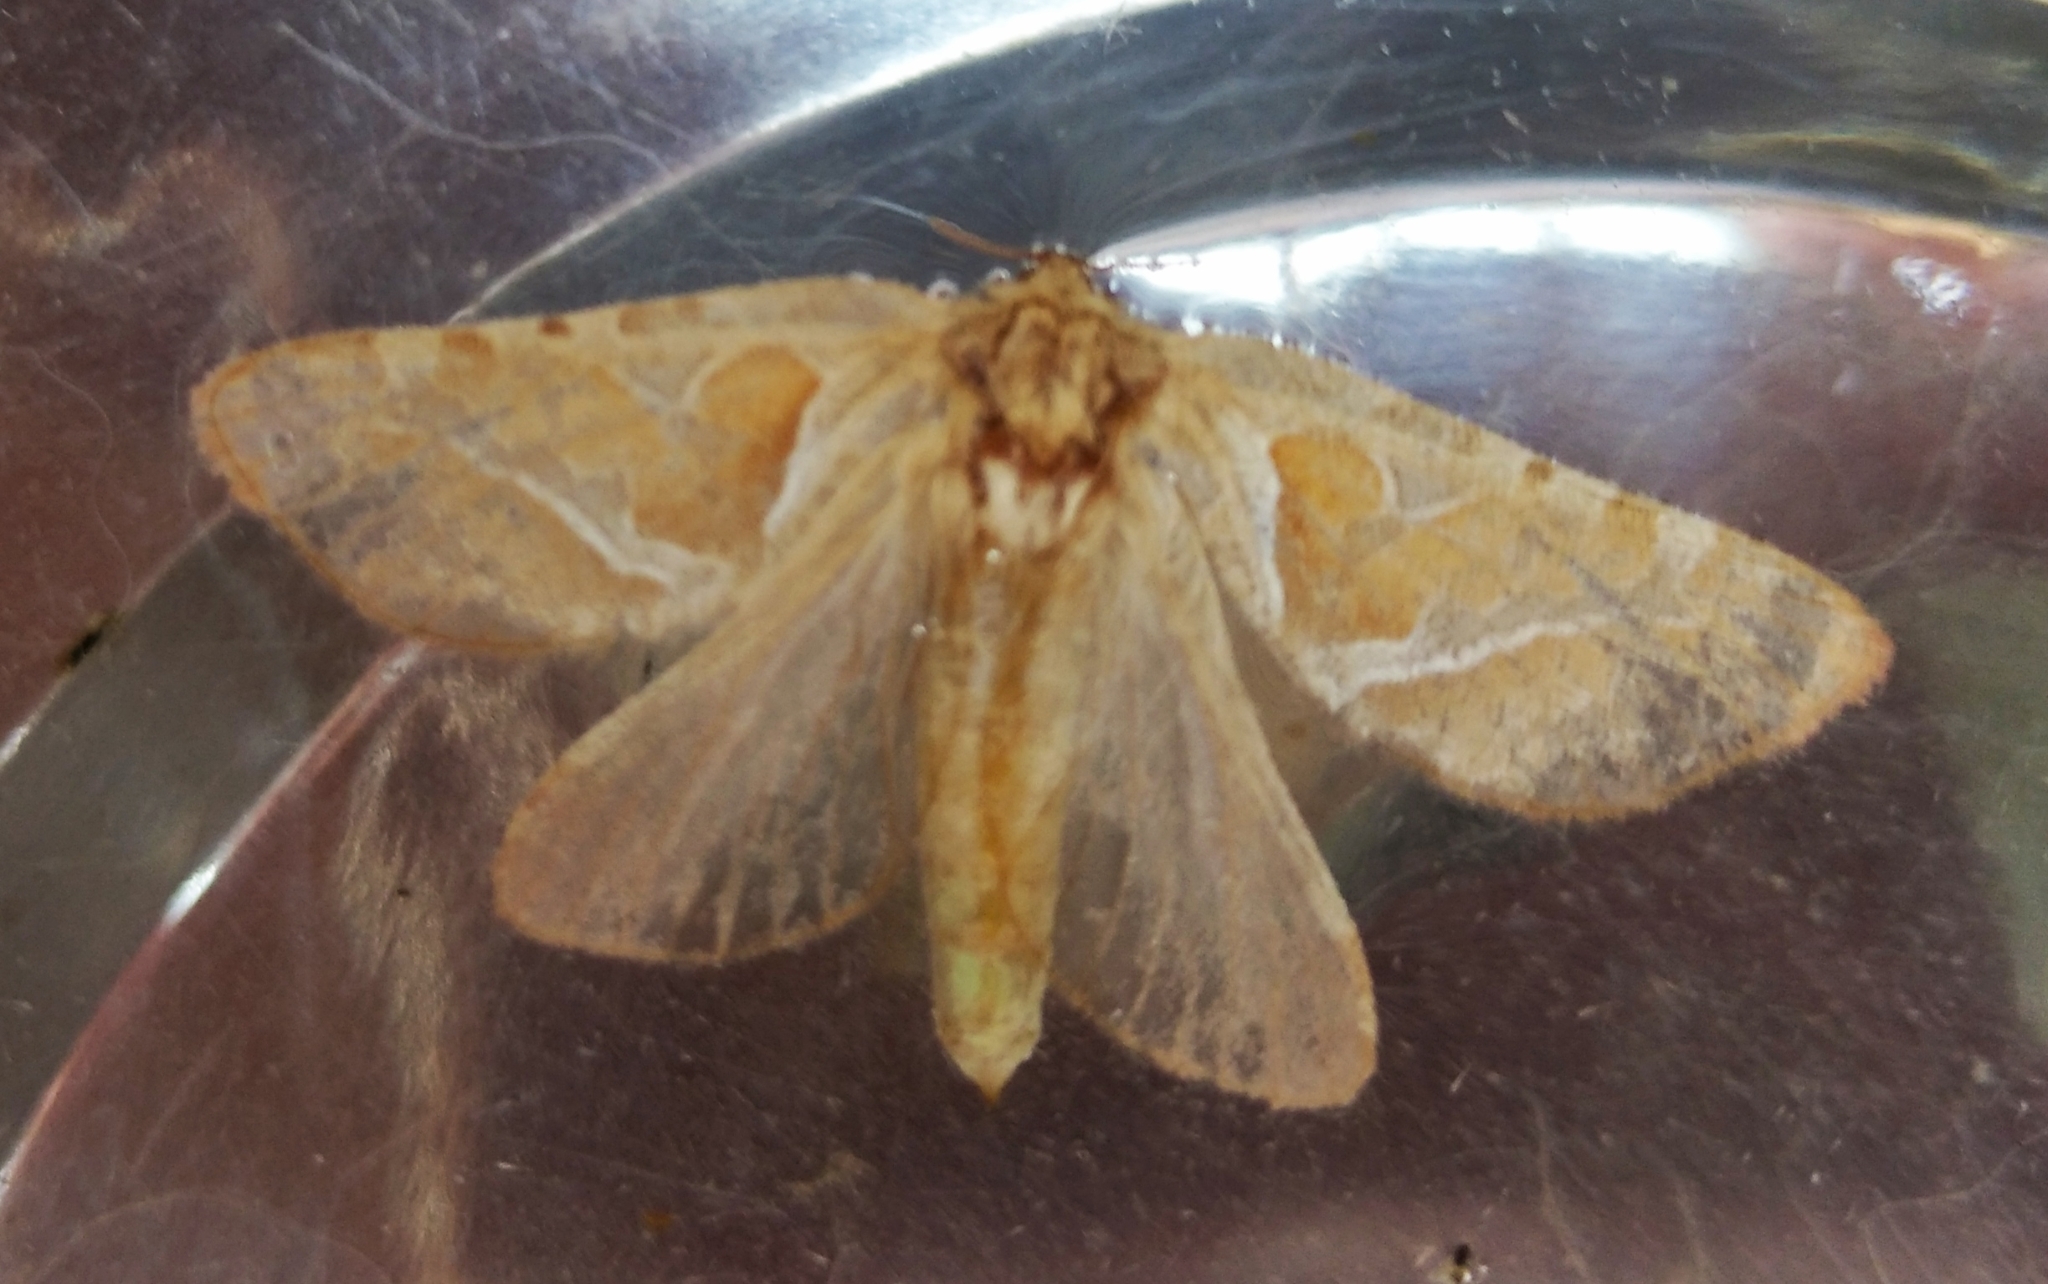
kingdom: Animalia
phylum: Arthropoda
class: Insecta
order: Lepidoptera
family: Hepialidae
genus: Triodia
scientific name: Triodia sylvina
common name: Orange swift
